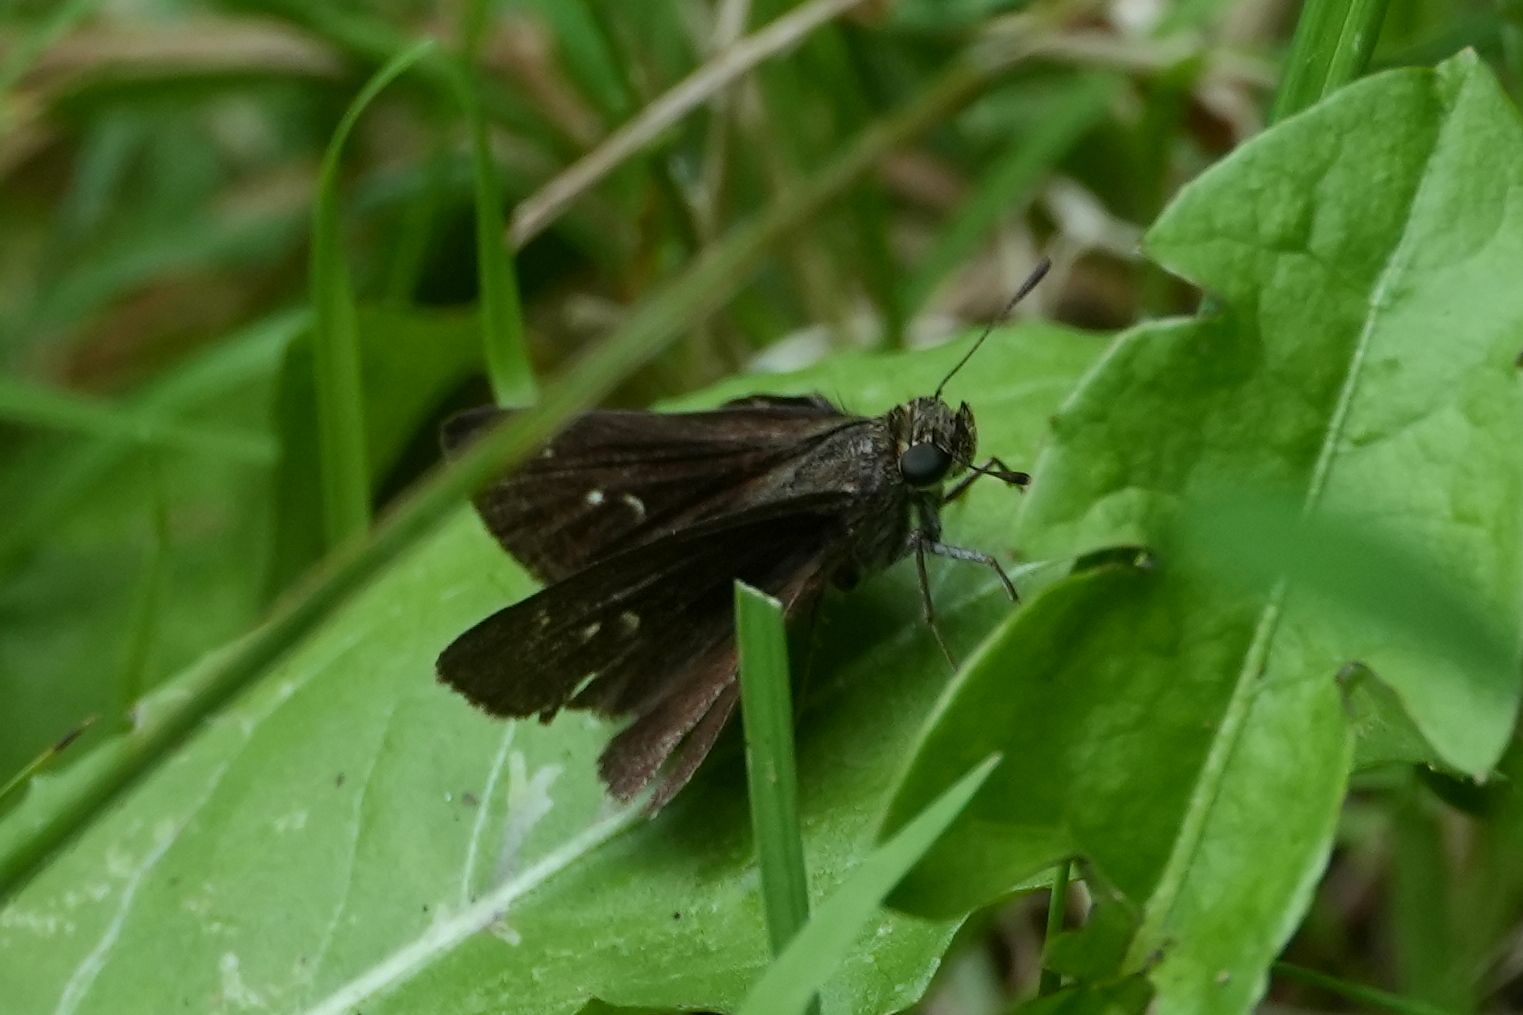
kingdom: Animalia
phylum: Arthropoda
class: Insecta
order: Lepidoptera
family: Hesperiidae
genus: Euphyes
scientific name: Euphyes vestris
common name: Dun skipper
